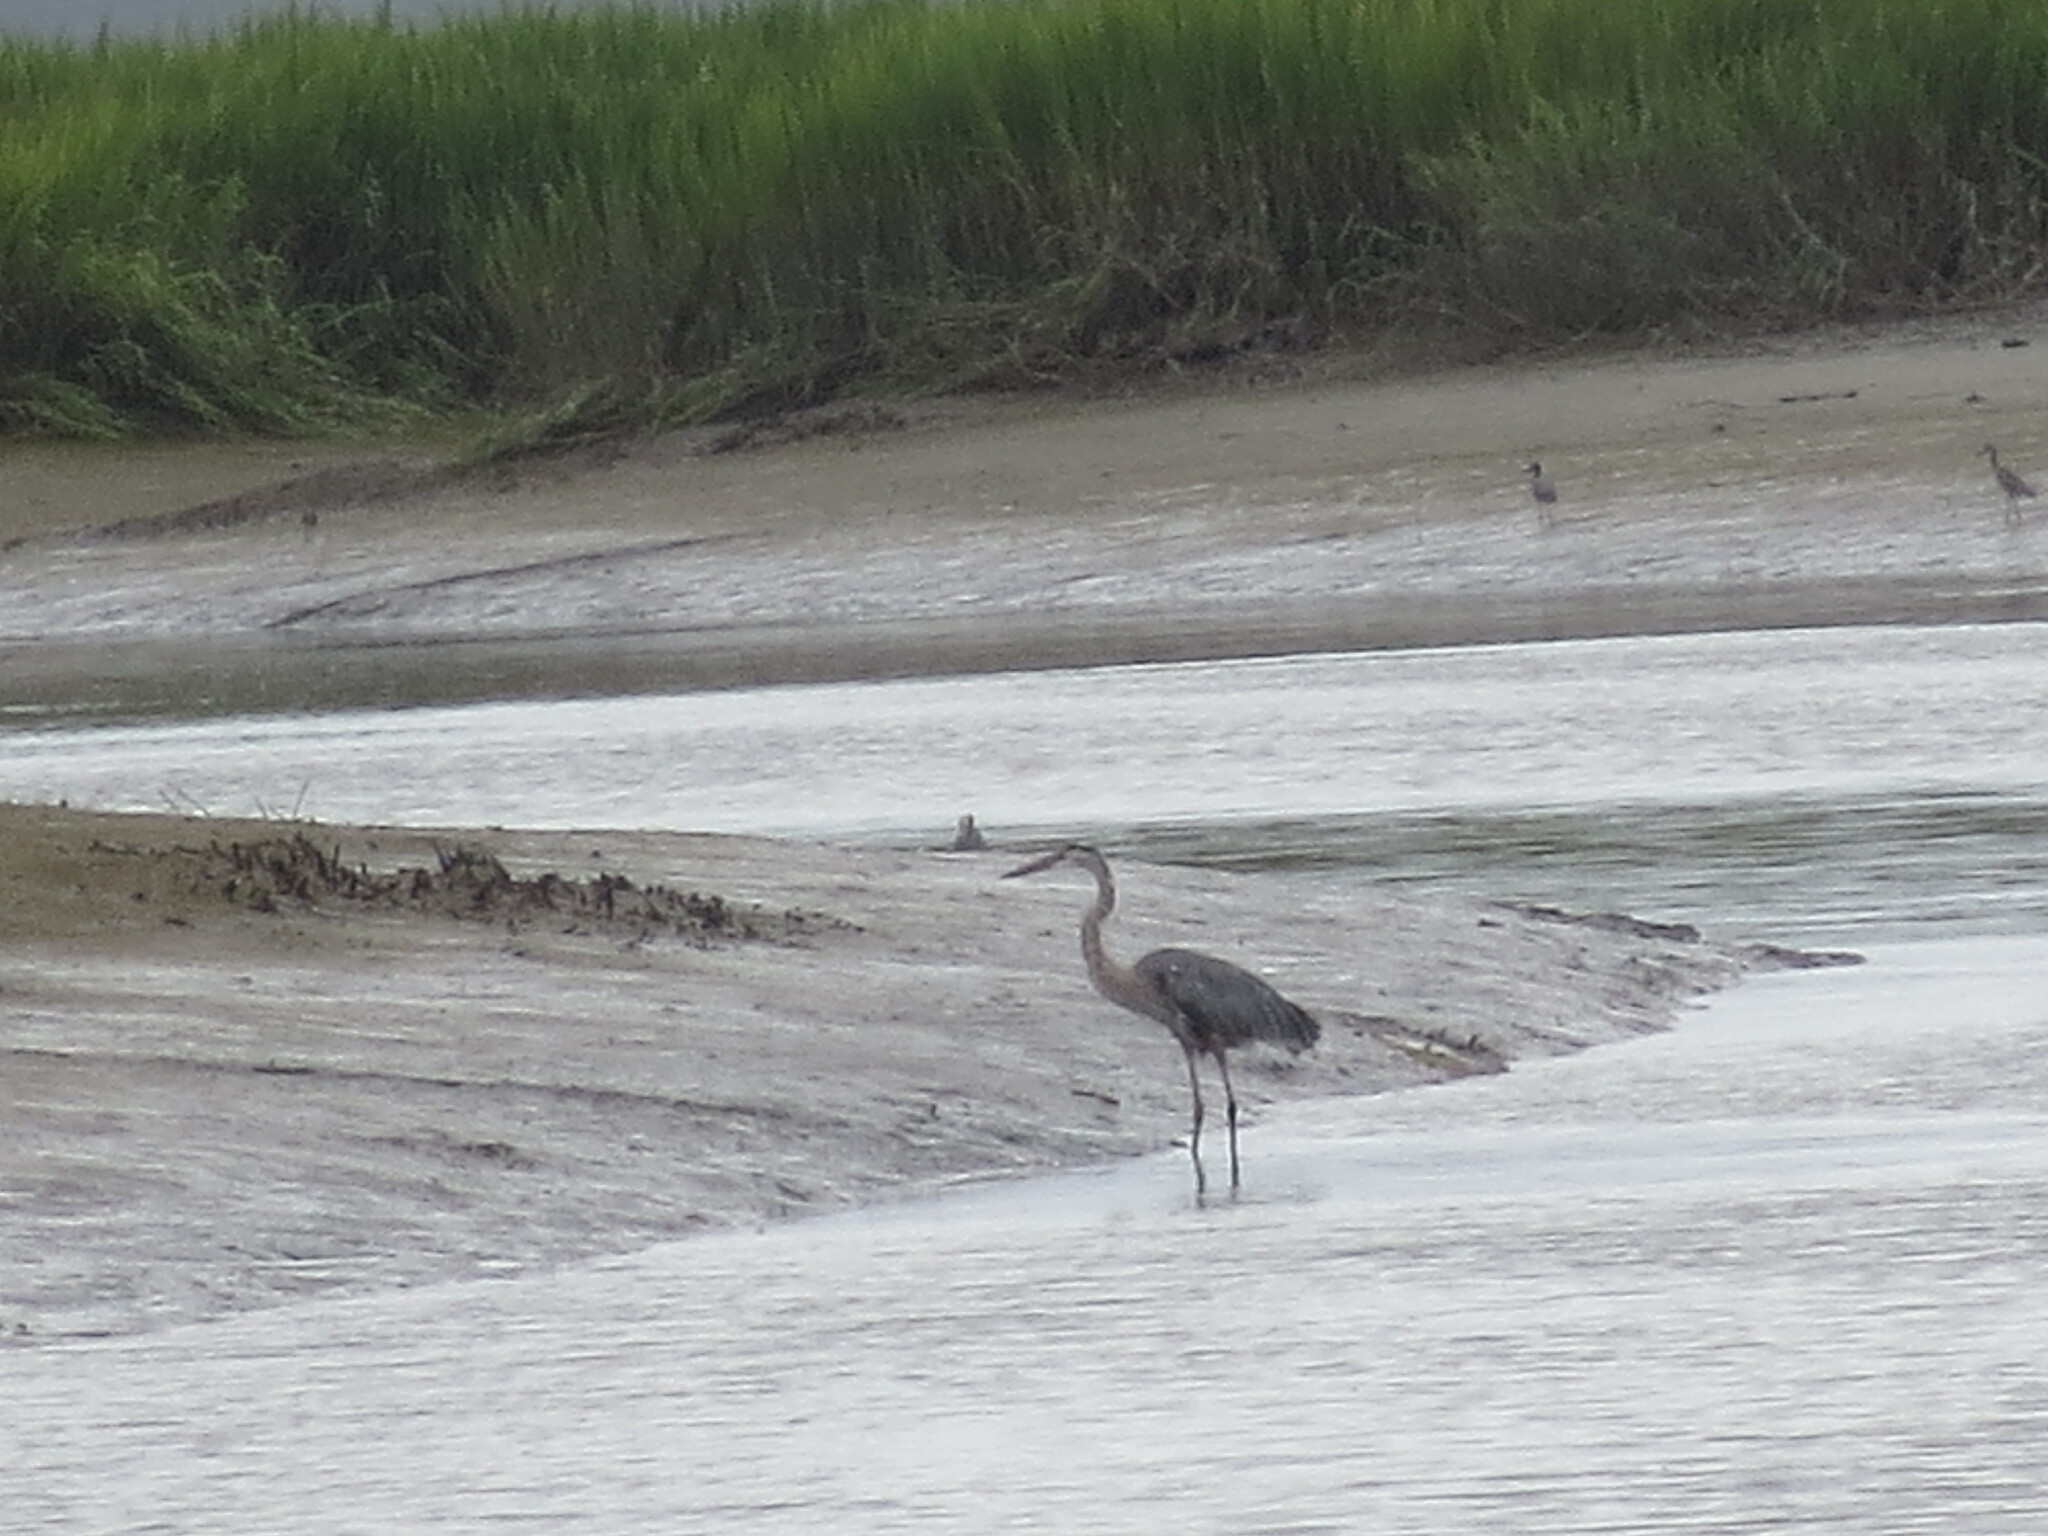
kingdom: Animalia
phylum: Chordata
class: Aves
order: Pelecaniformes
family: Ardeidae
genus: Ardea
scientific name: Ardea herodias
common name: Great blue heron
